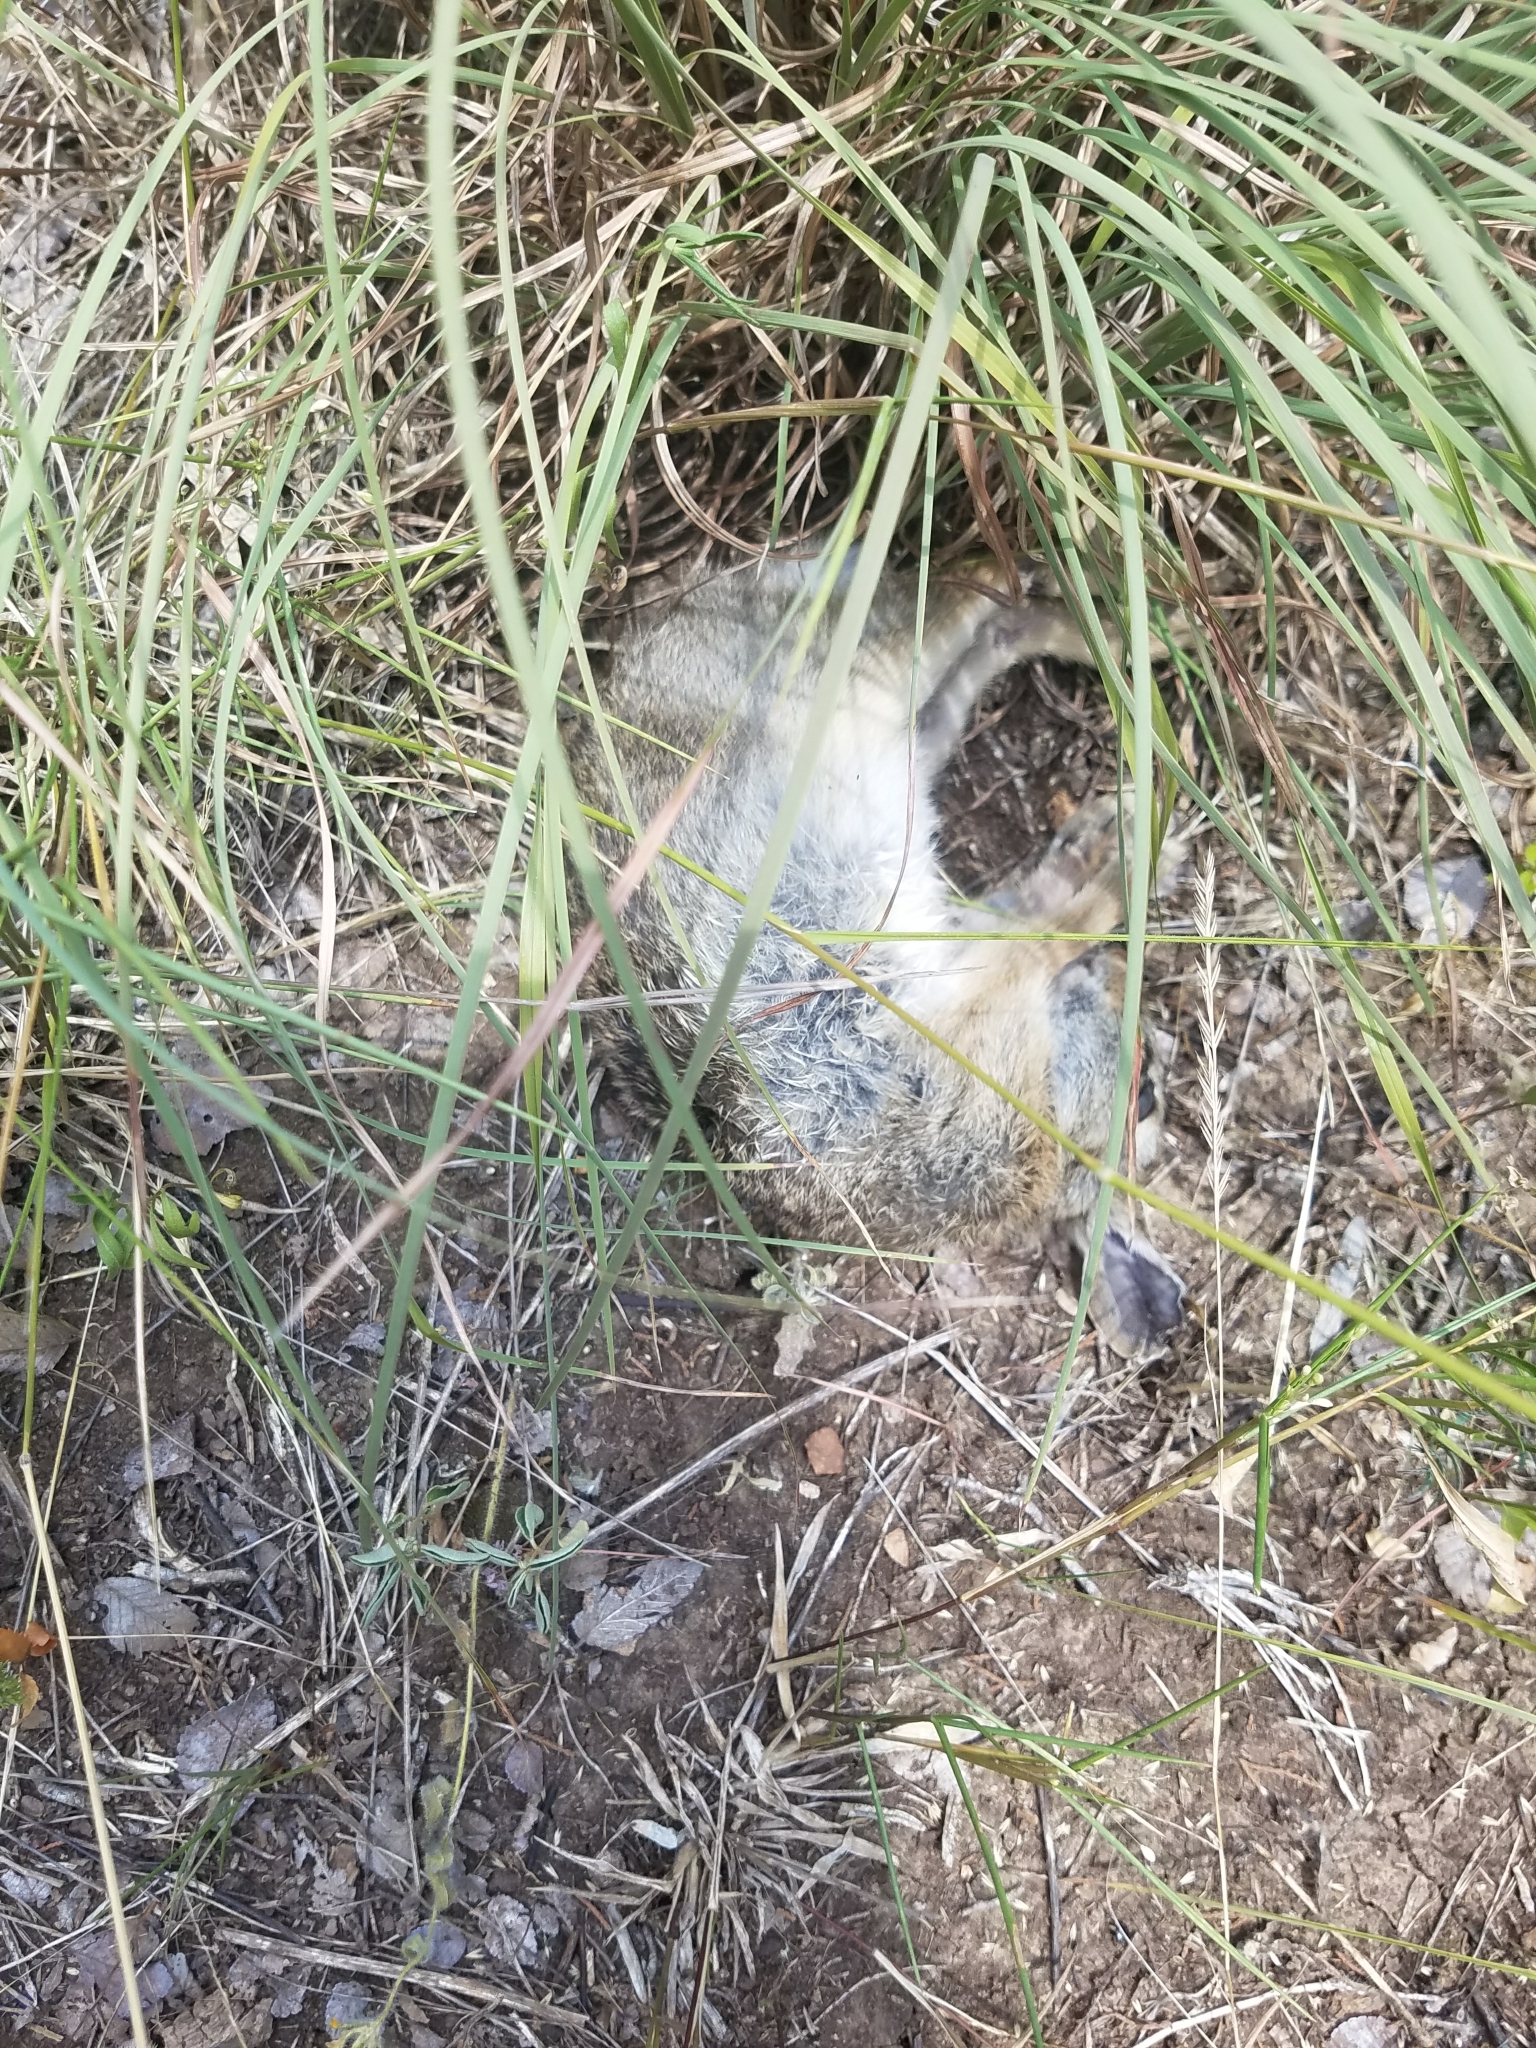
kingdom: Animalia
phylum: Chordata
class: Mammalia
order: Lagomorpha
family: Leporidae
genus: Sylvilagus
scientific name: Sylvilagus floridanus
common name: Eastern cottontail
